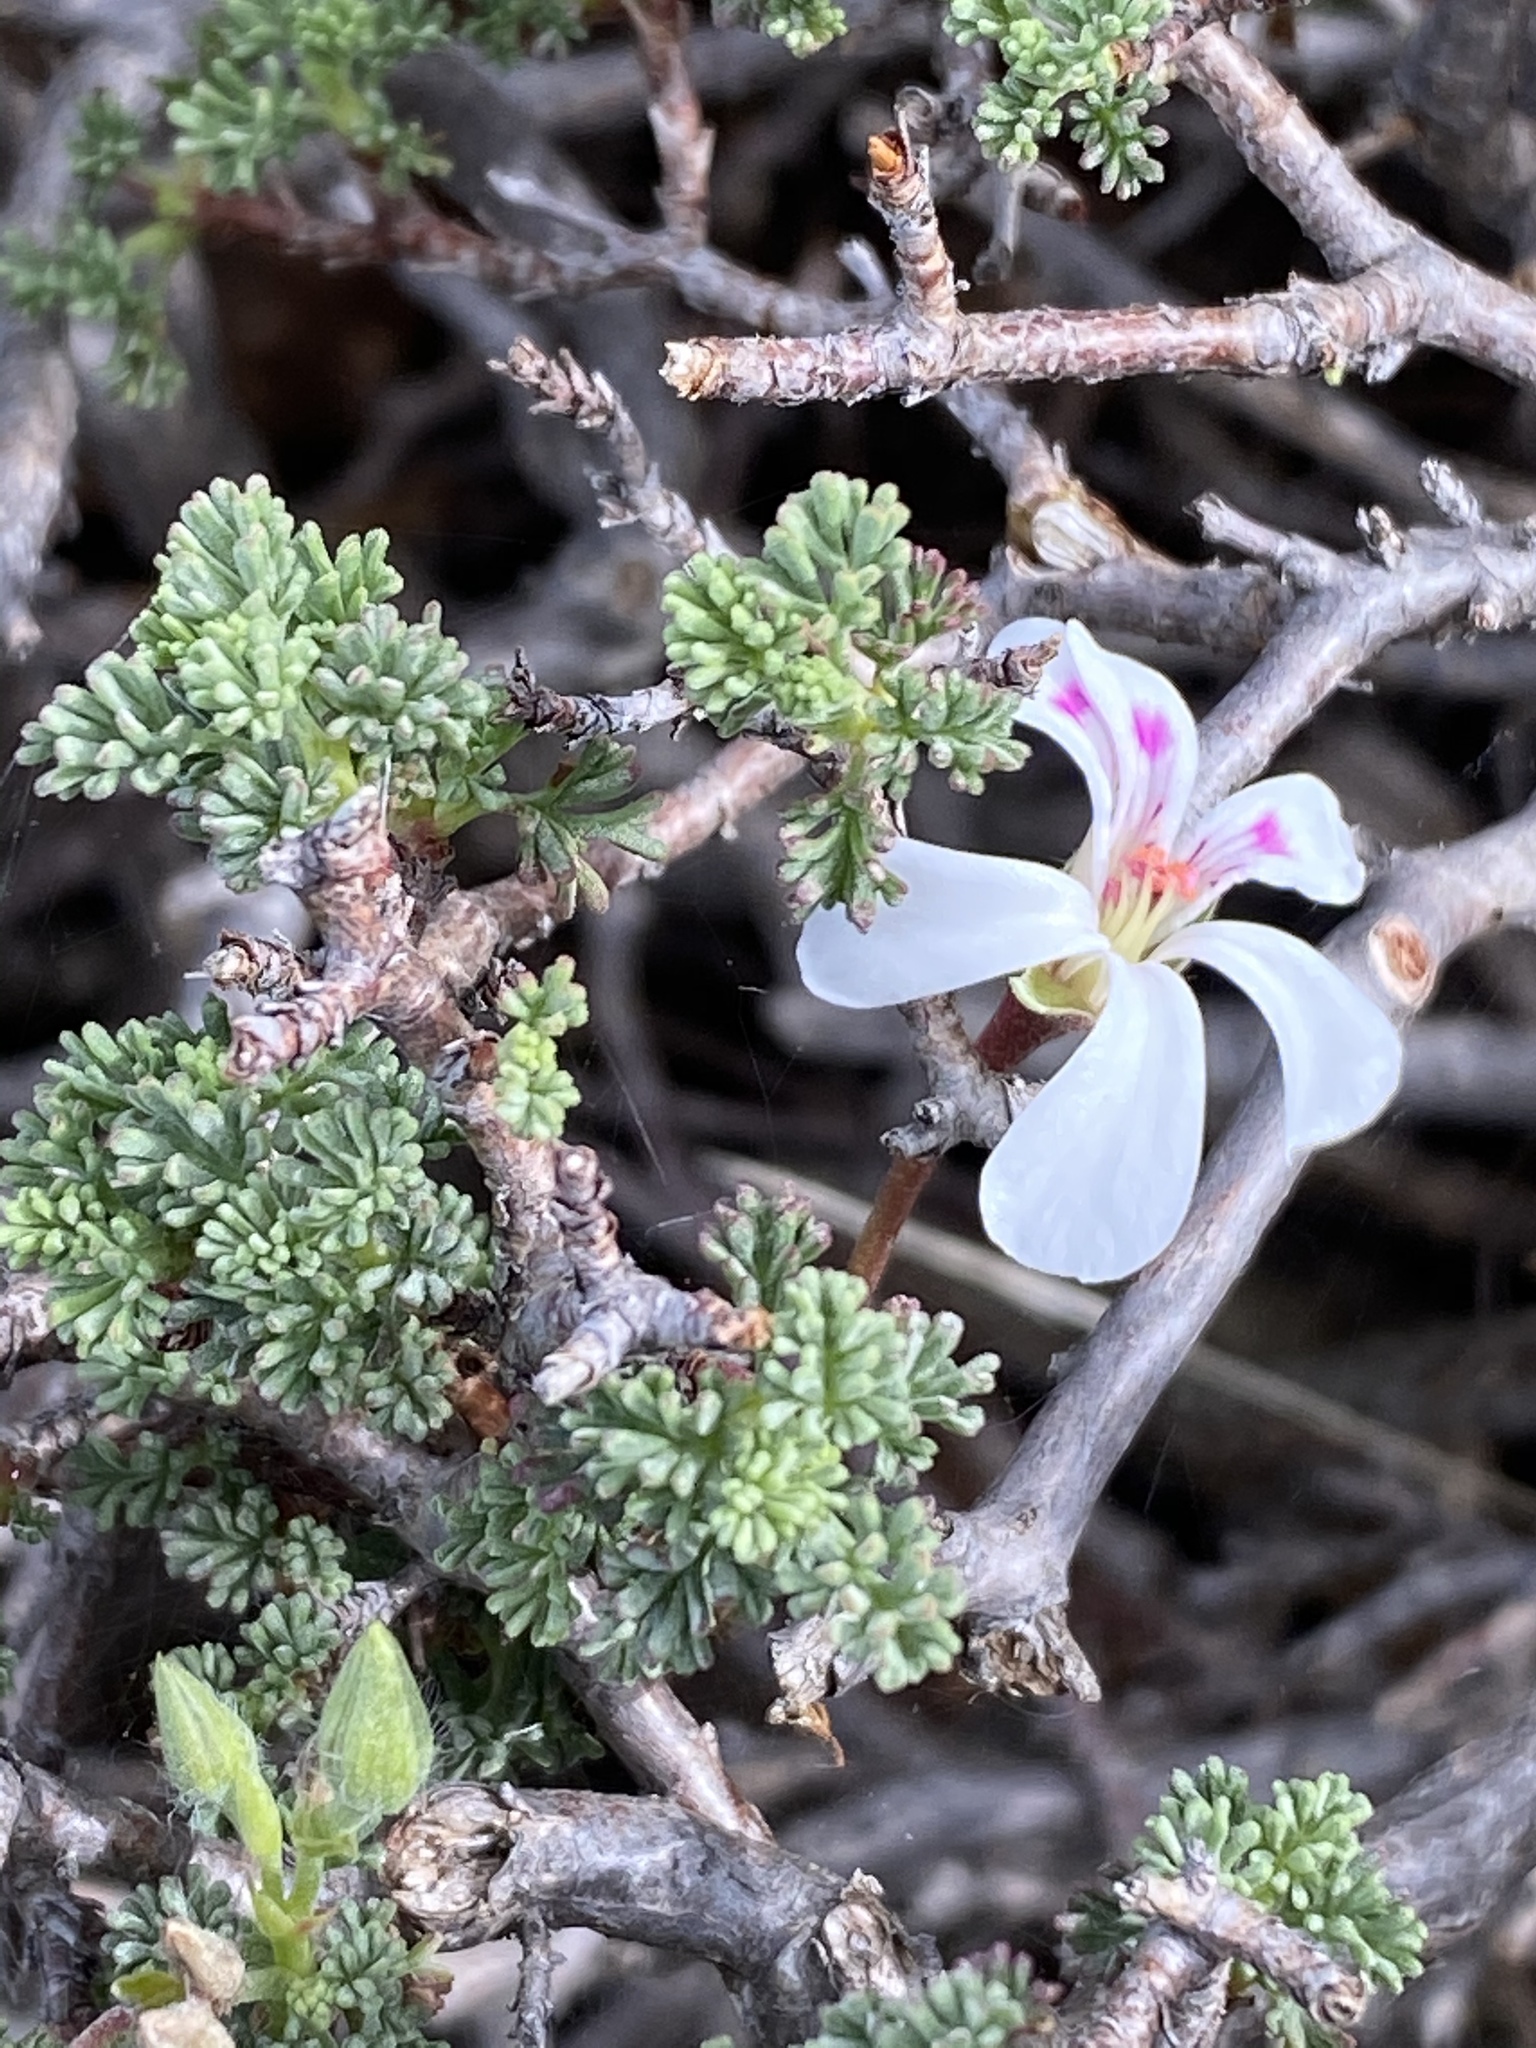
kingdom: Plantae
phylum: Tracheophyta
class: Magnoliopsida
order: Geraniales
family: Geraniaceae
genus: Pelargonium
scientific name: Pelargonium abrotanifolium
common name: Southernwood geranium
